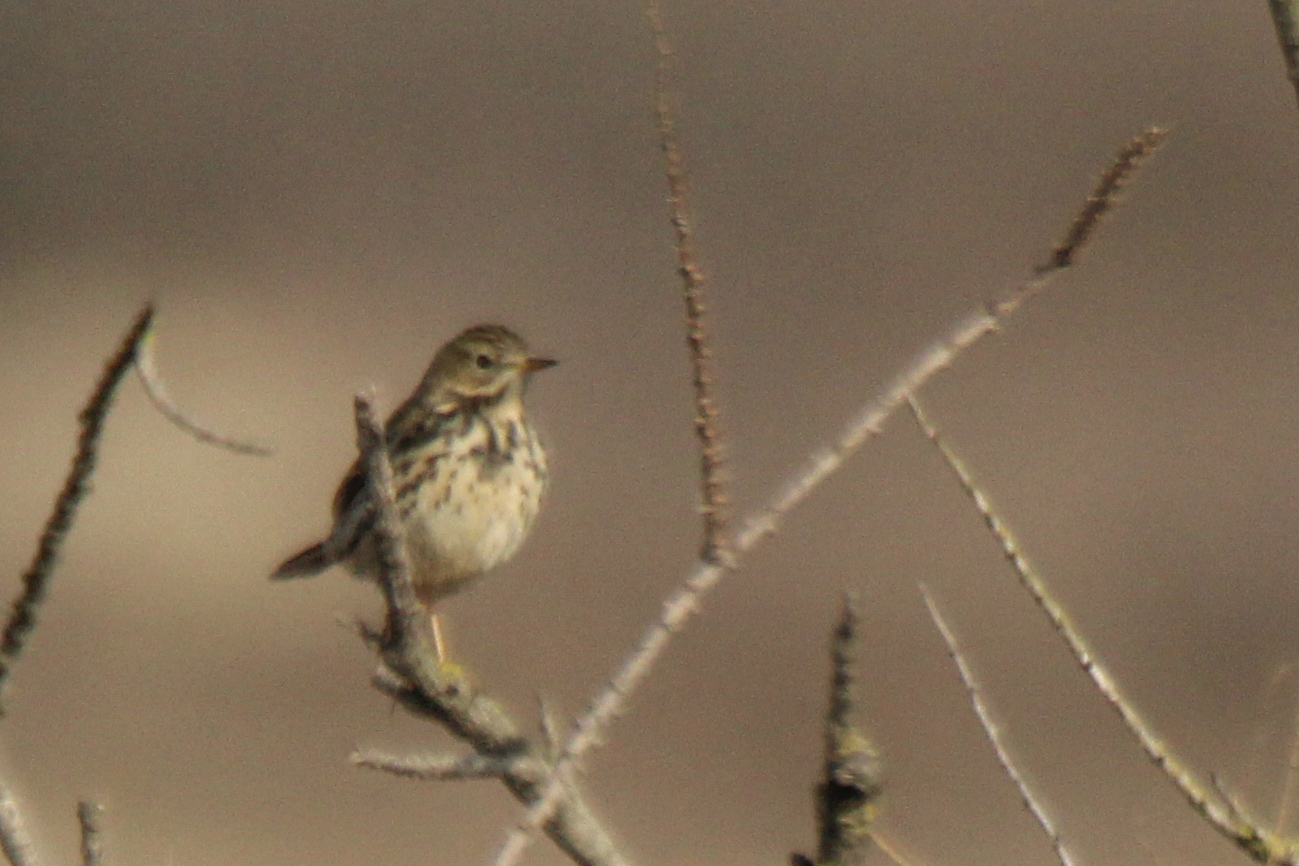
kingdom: Animalia
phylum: Chordata
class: Aves
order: Passeriformes
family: Motacillidae
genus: Anthus
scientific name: Anthus pratensis
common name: Meadow pipit
